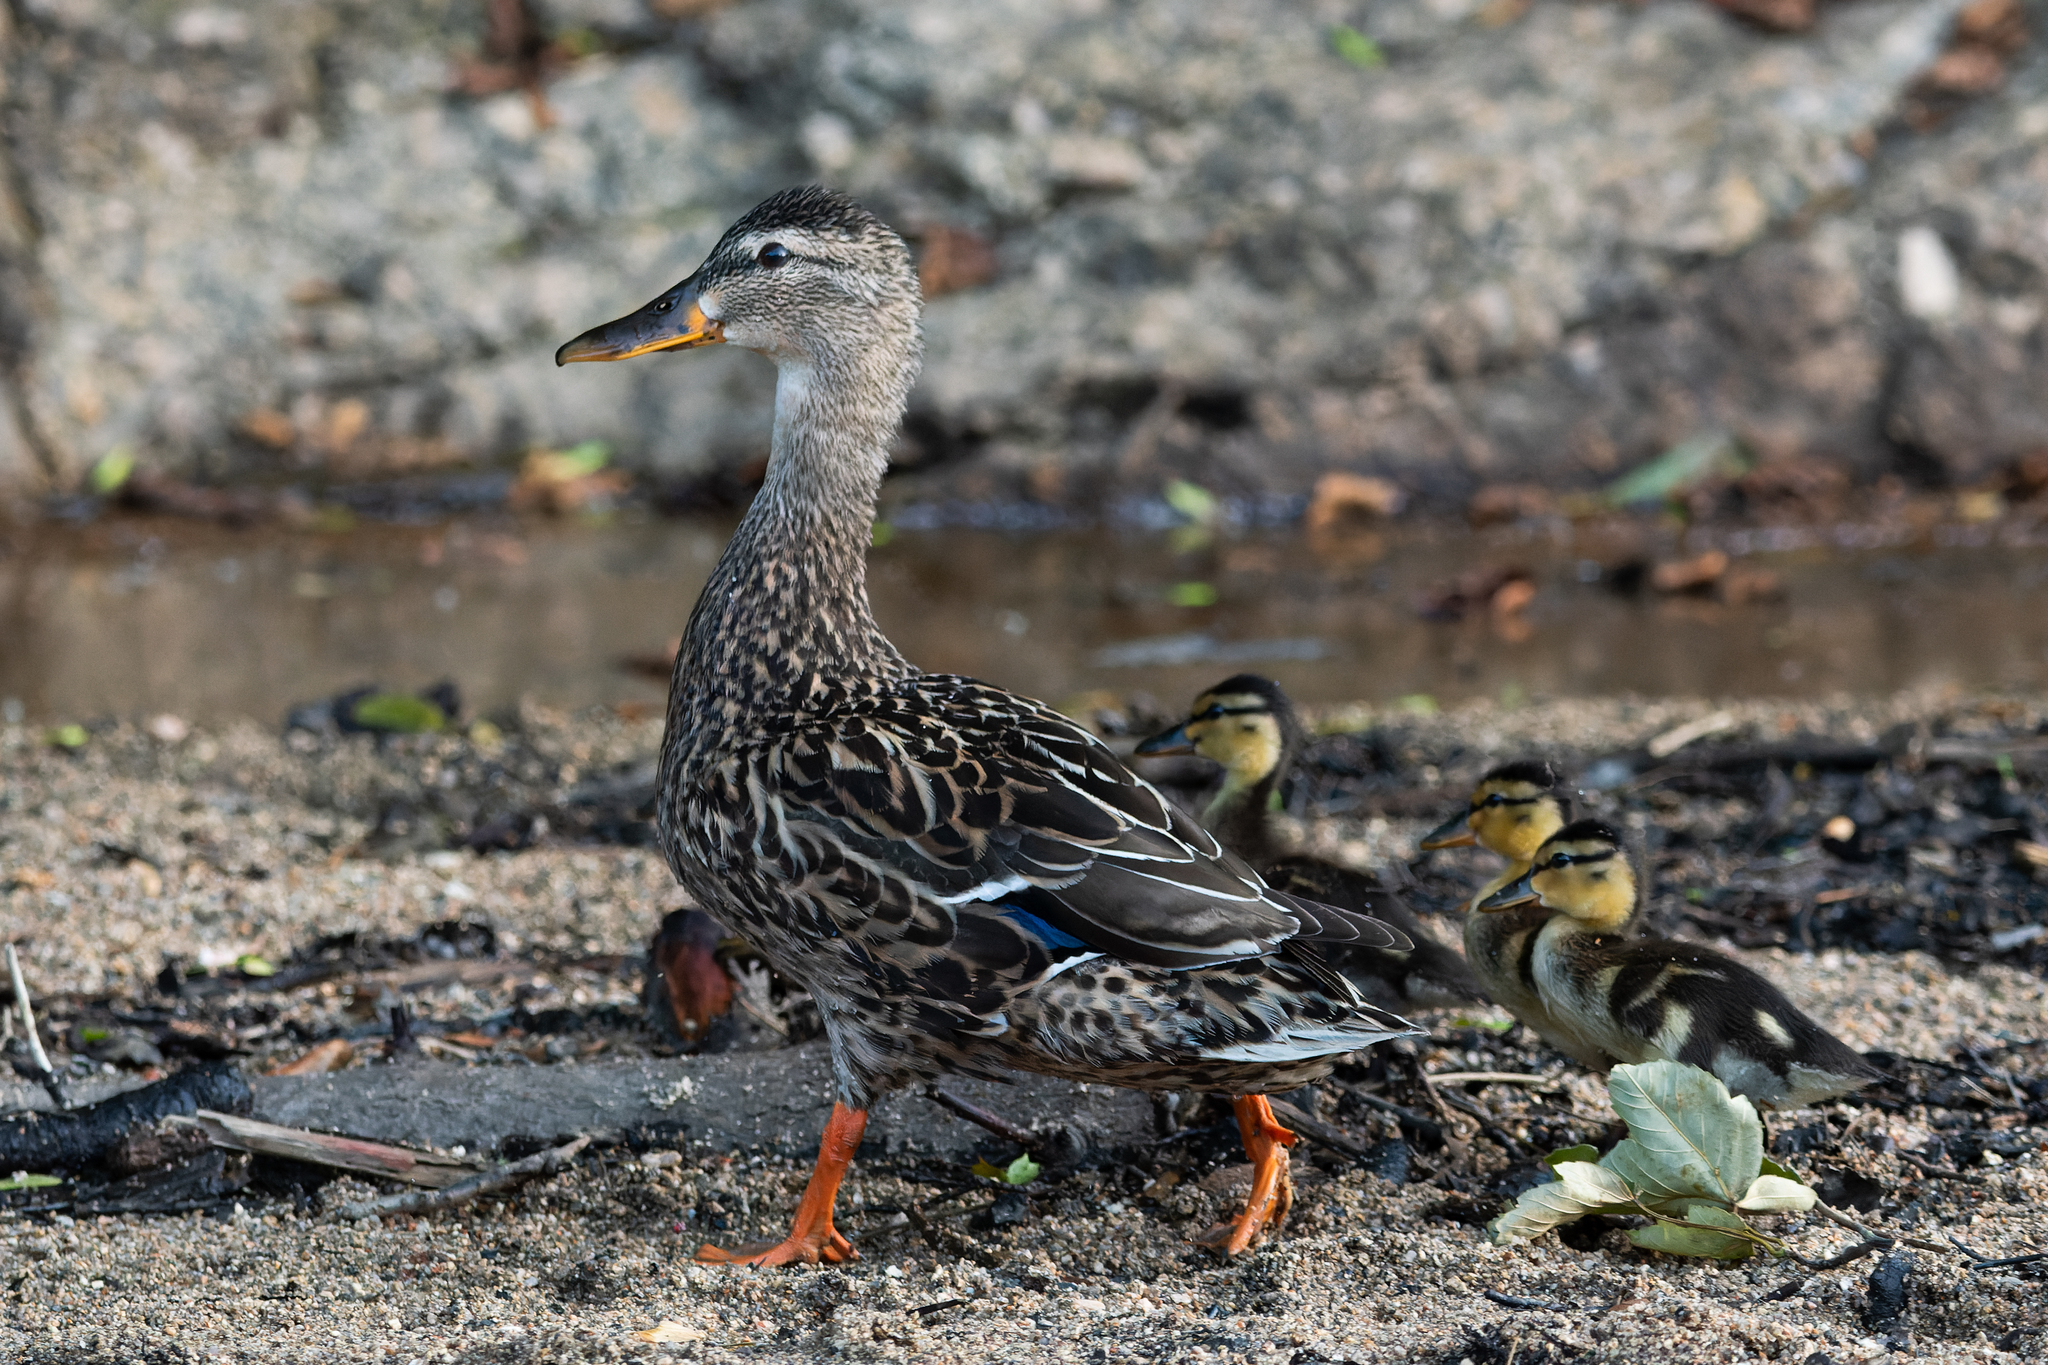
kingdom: Animalia
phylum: Chordata
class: Aves
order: Anseriformes
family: Anatidae
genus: Anas
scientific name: Anas platyrhynchos
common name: Mallard
